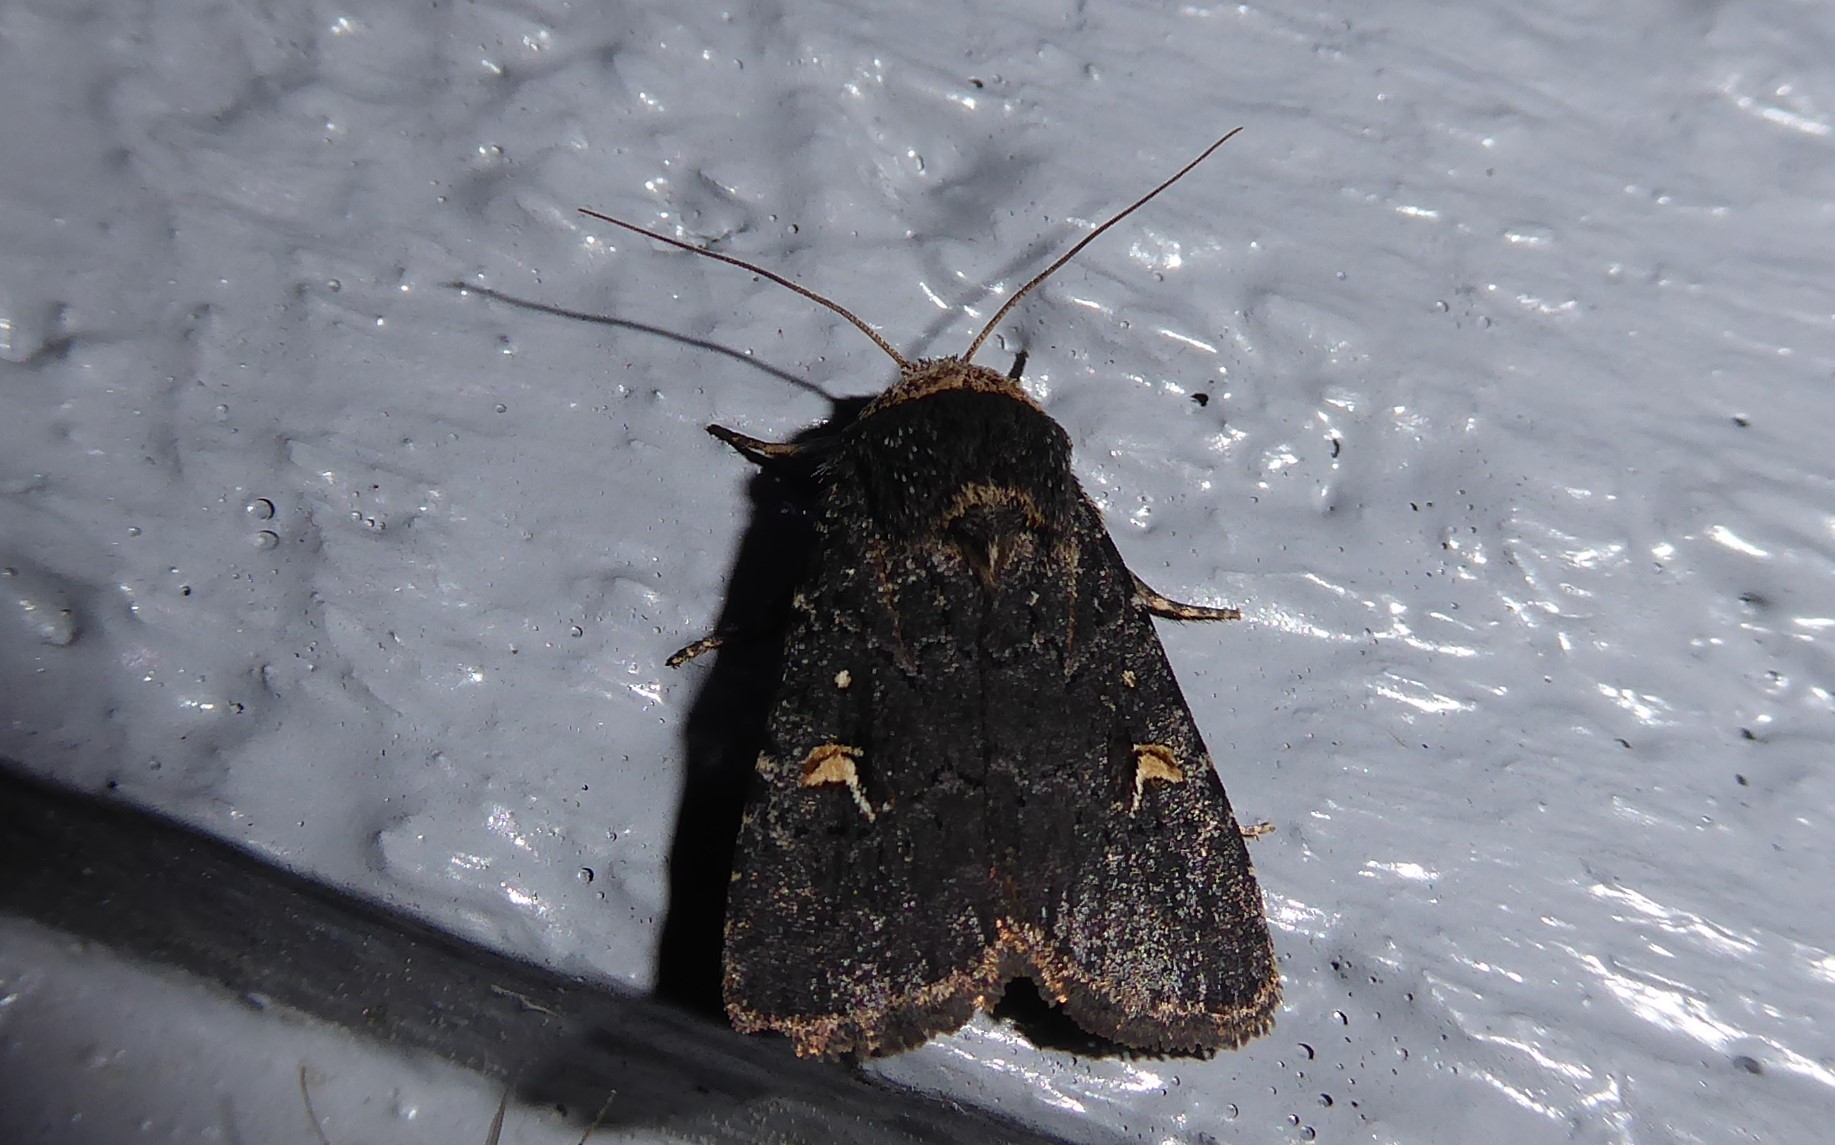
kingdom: Animalia
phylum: Arthropoda
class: Insecta
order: Lepidoptera
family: Noctuidae
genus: Proteuxoa
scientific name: Proteuxoa tetronycha
